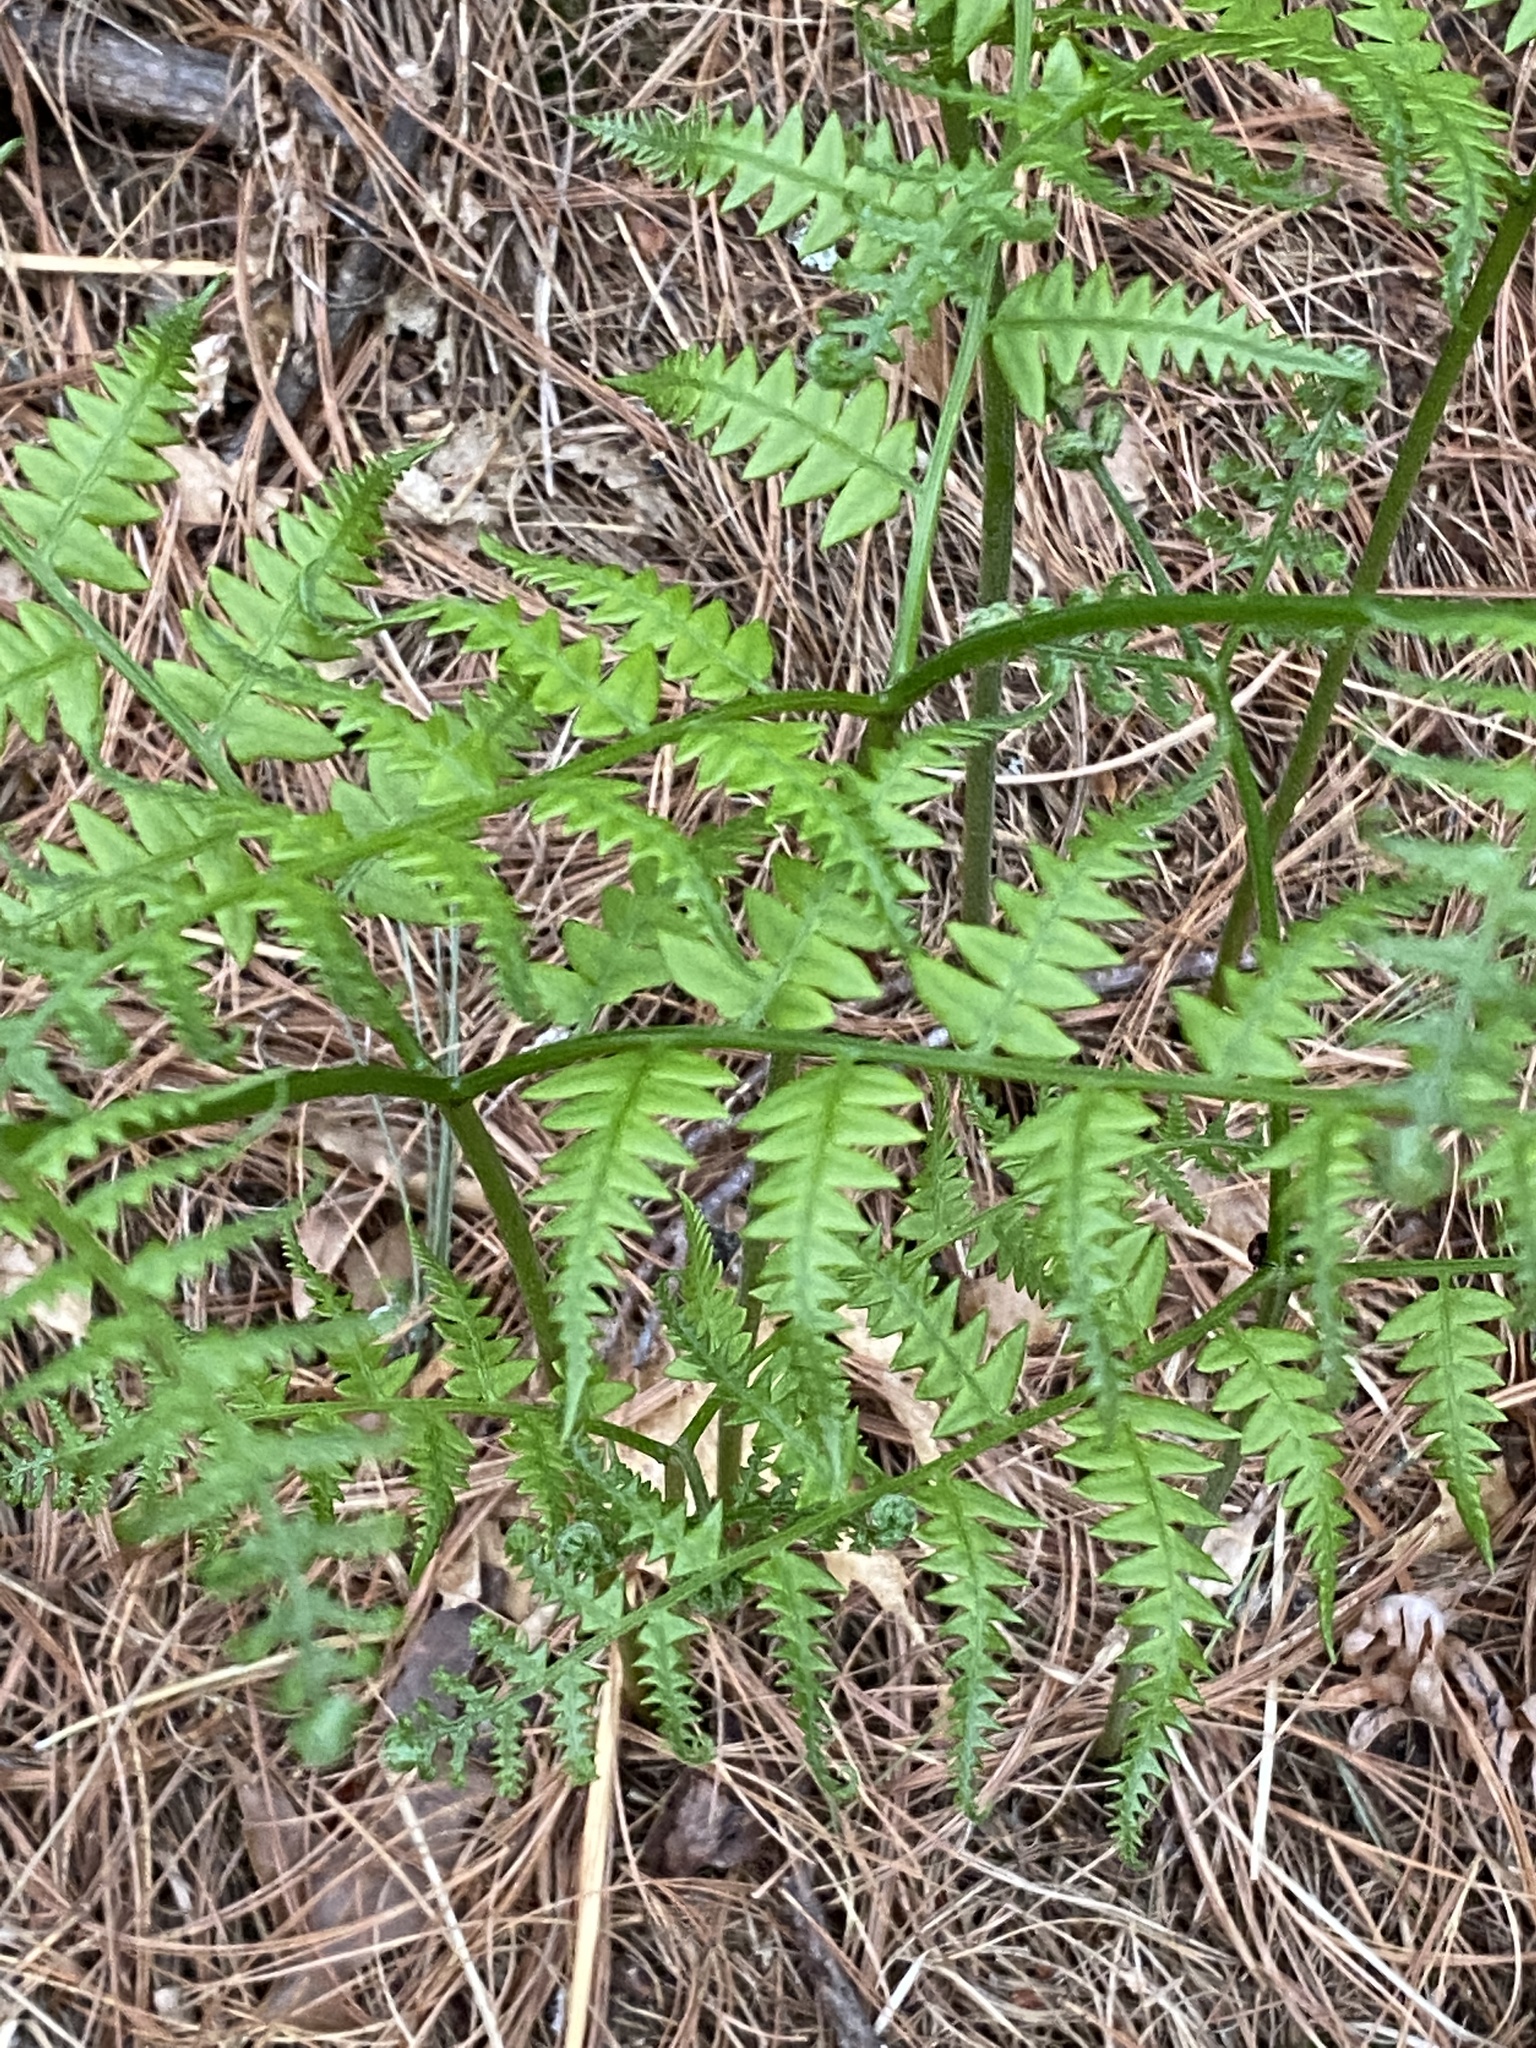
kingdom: Plantae
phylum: Tracheophyta
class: Polypodiopsida
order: Polypodiales
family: Dennstaedtiaceae
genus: Pteridium
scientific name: Pteridium aquilinum
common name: Bracken
